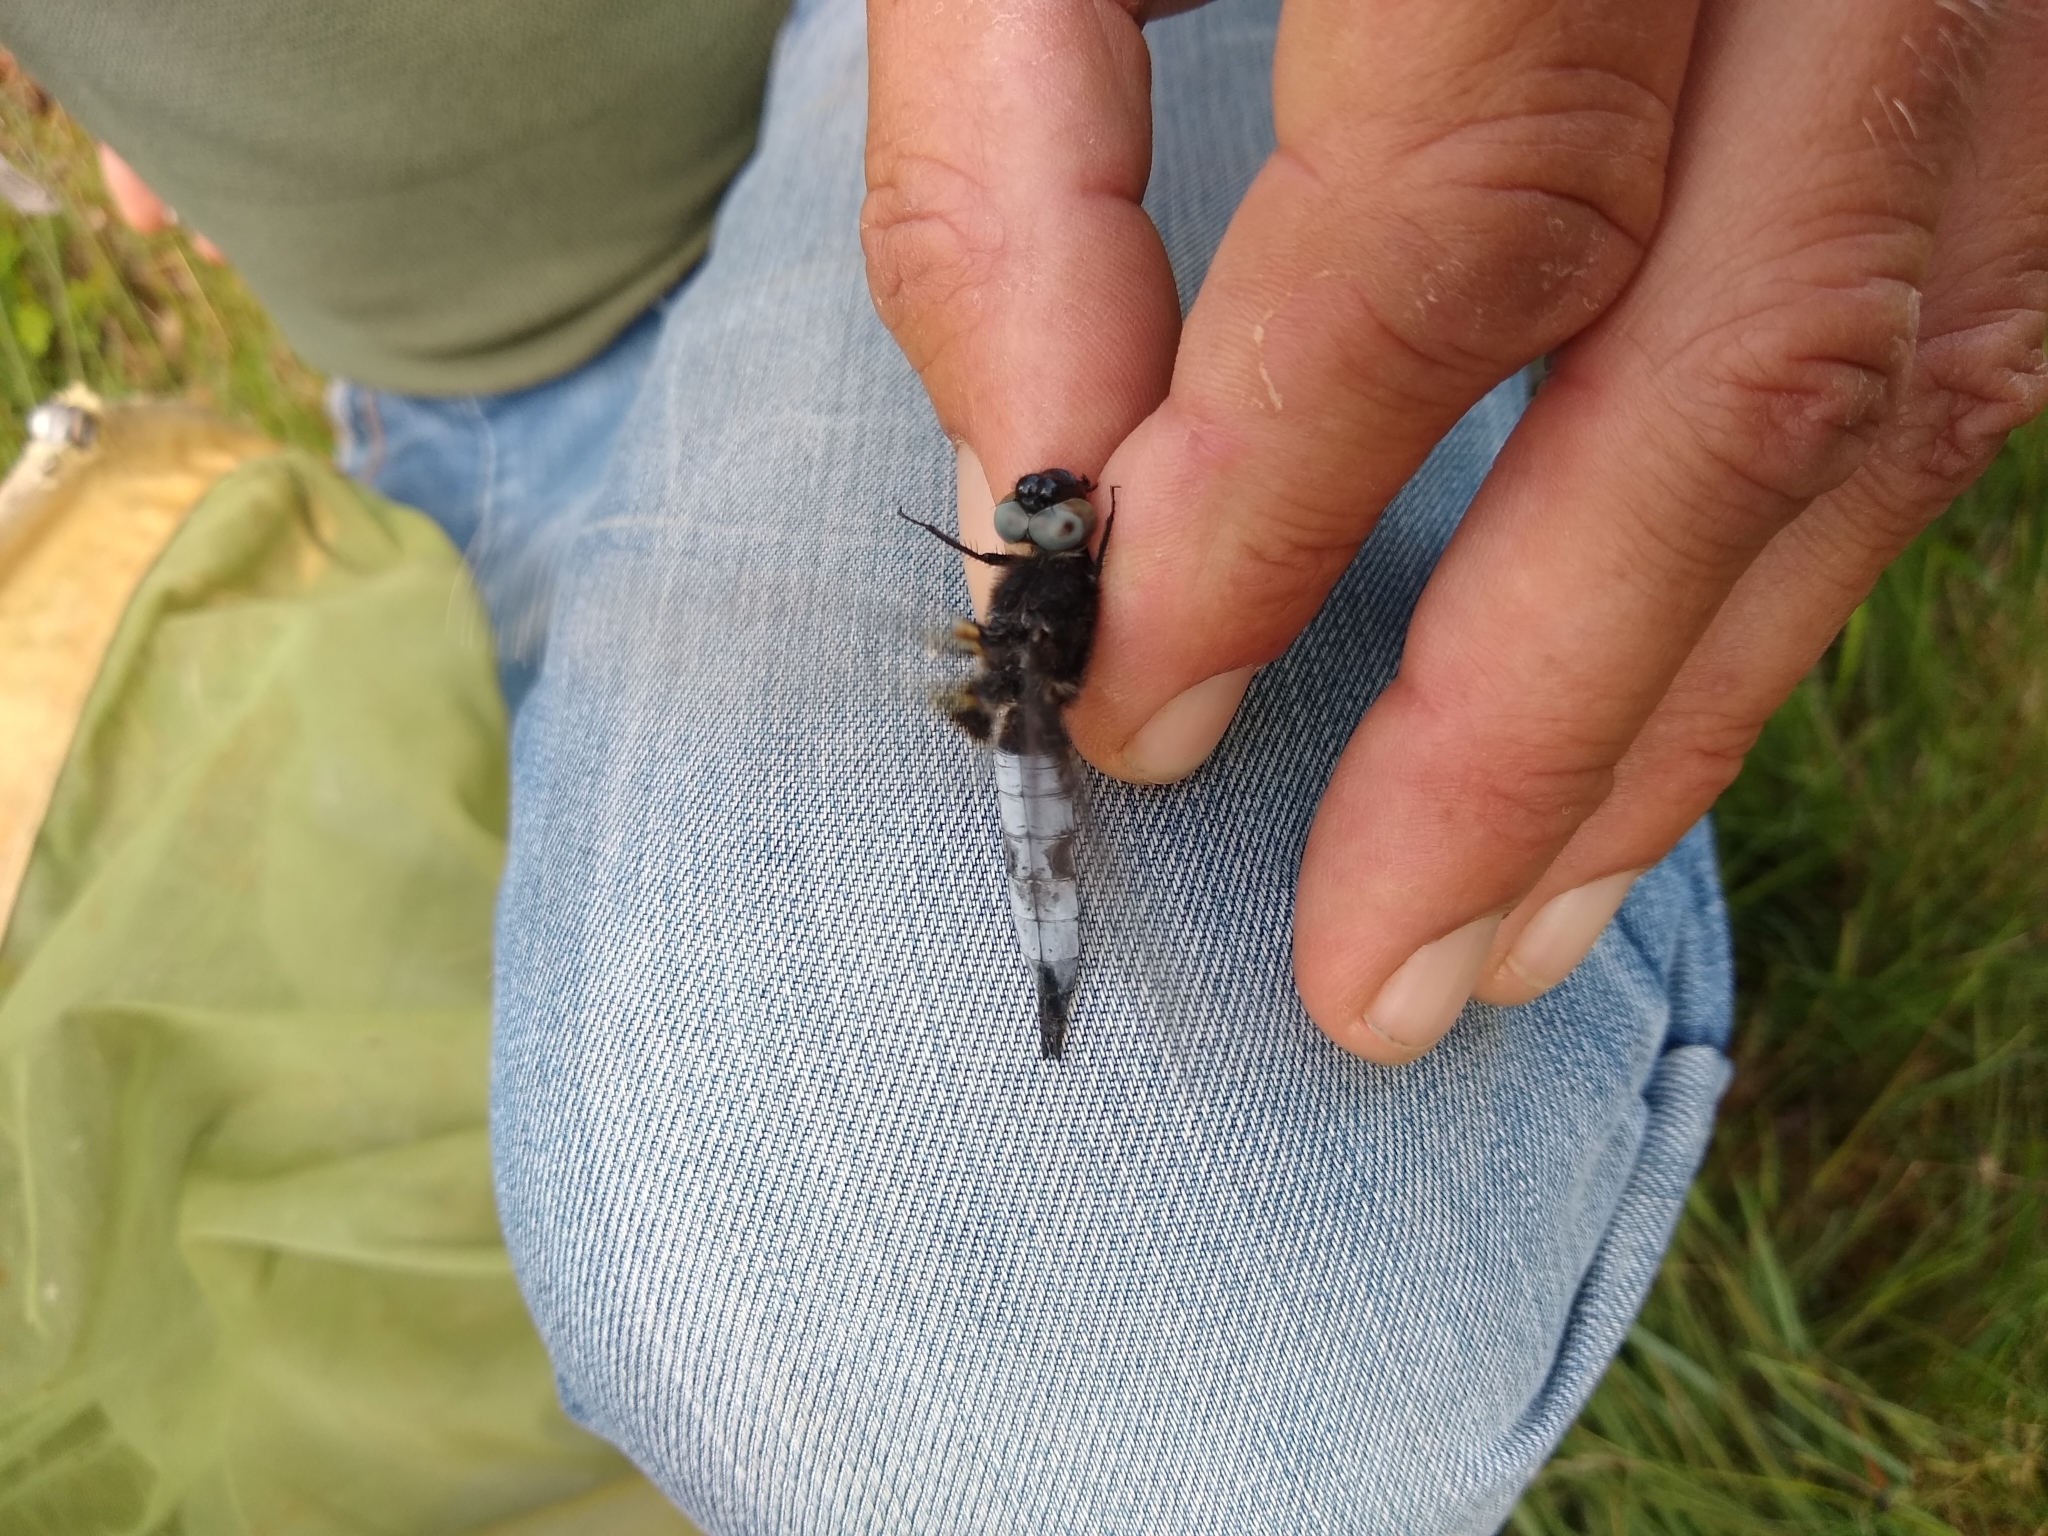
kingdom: Animalia
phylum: Arthropoda
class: Insecta
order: Odonata
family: Libellulidae
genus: Libellula
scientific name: Libellula fulva
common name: Blue chaser
